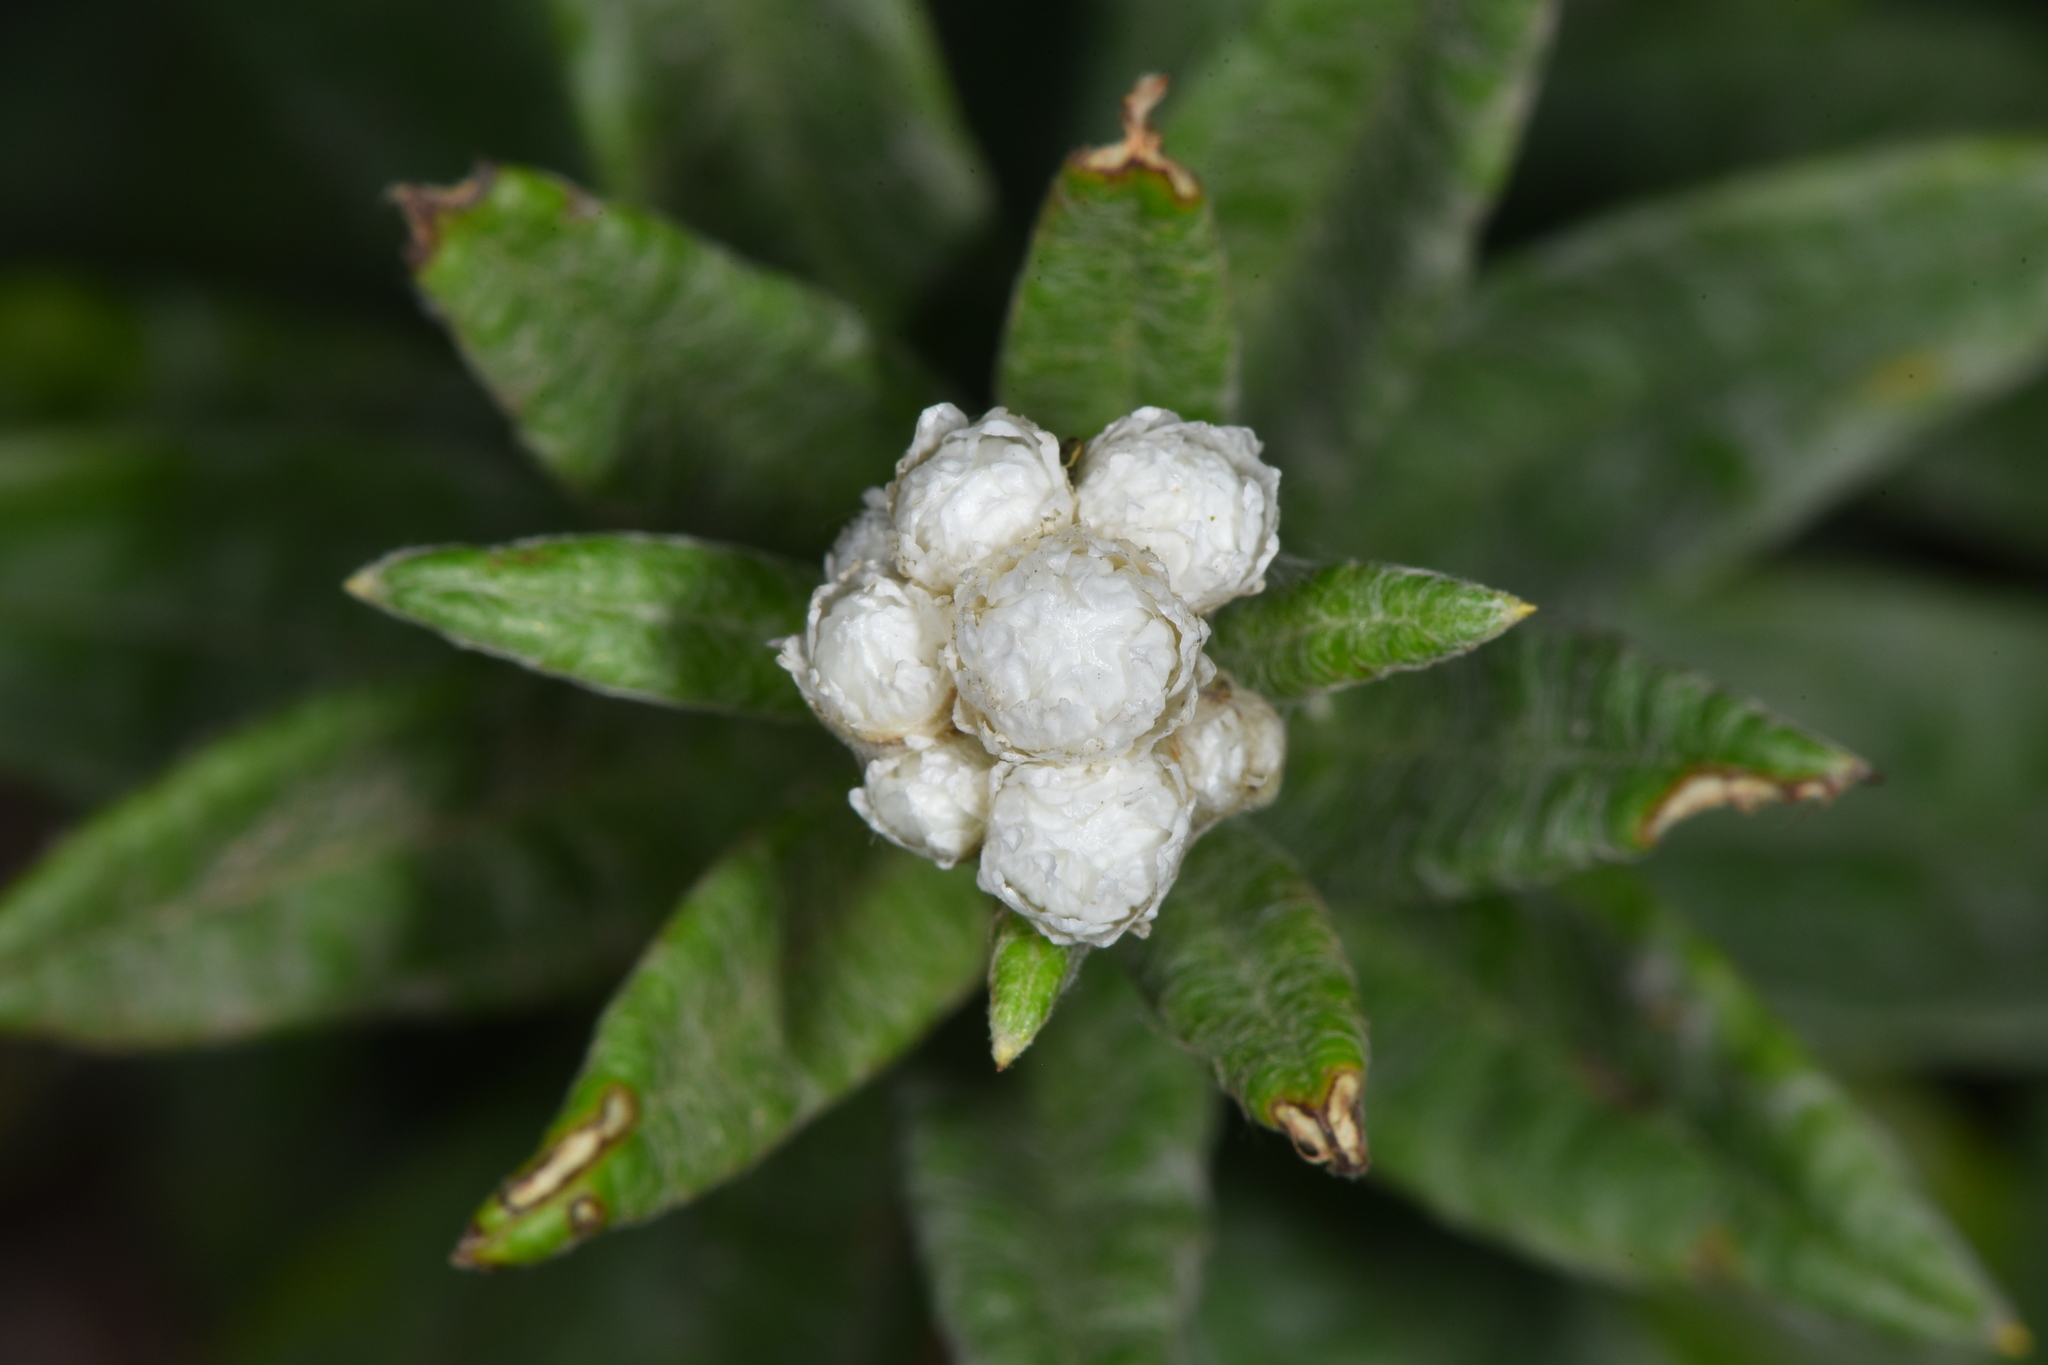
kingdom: Plantae
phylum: Tracheophyta
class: Magnoliopsida
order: Asterales
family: Asteraceae
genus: Anaphalis
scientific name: Anaphalis margaritacea
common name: Pearly everlasting
